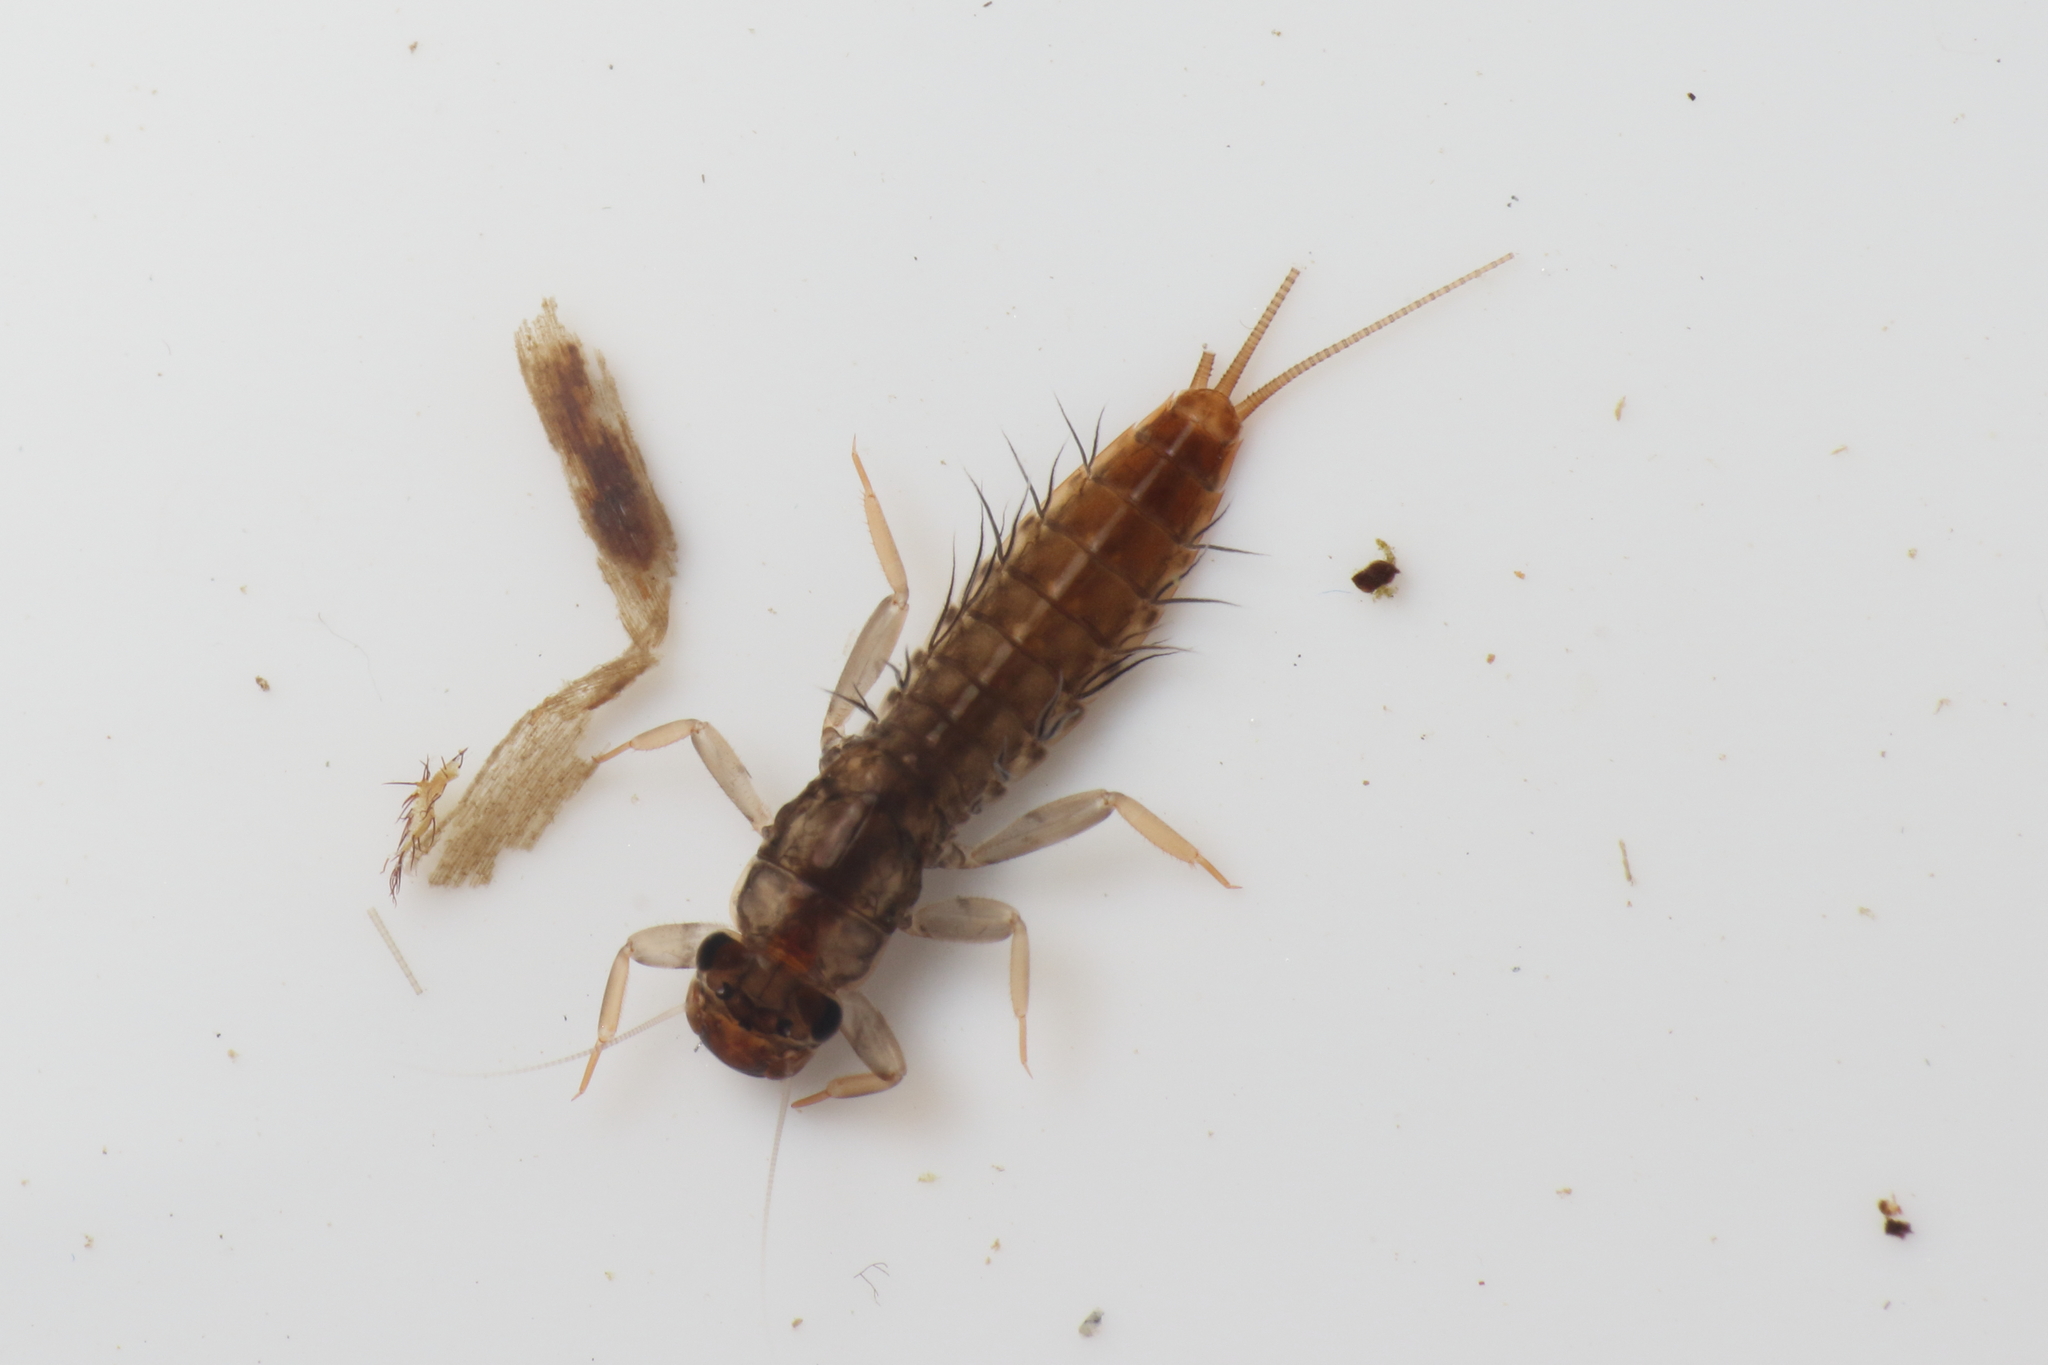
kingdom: Animalia
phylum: Arthropoda
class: Insecta
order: Ephemeroptera
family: Leptophlebiidae
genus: Neozephlebia
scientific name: Neozephlebia scita
